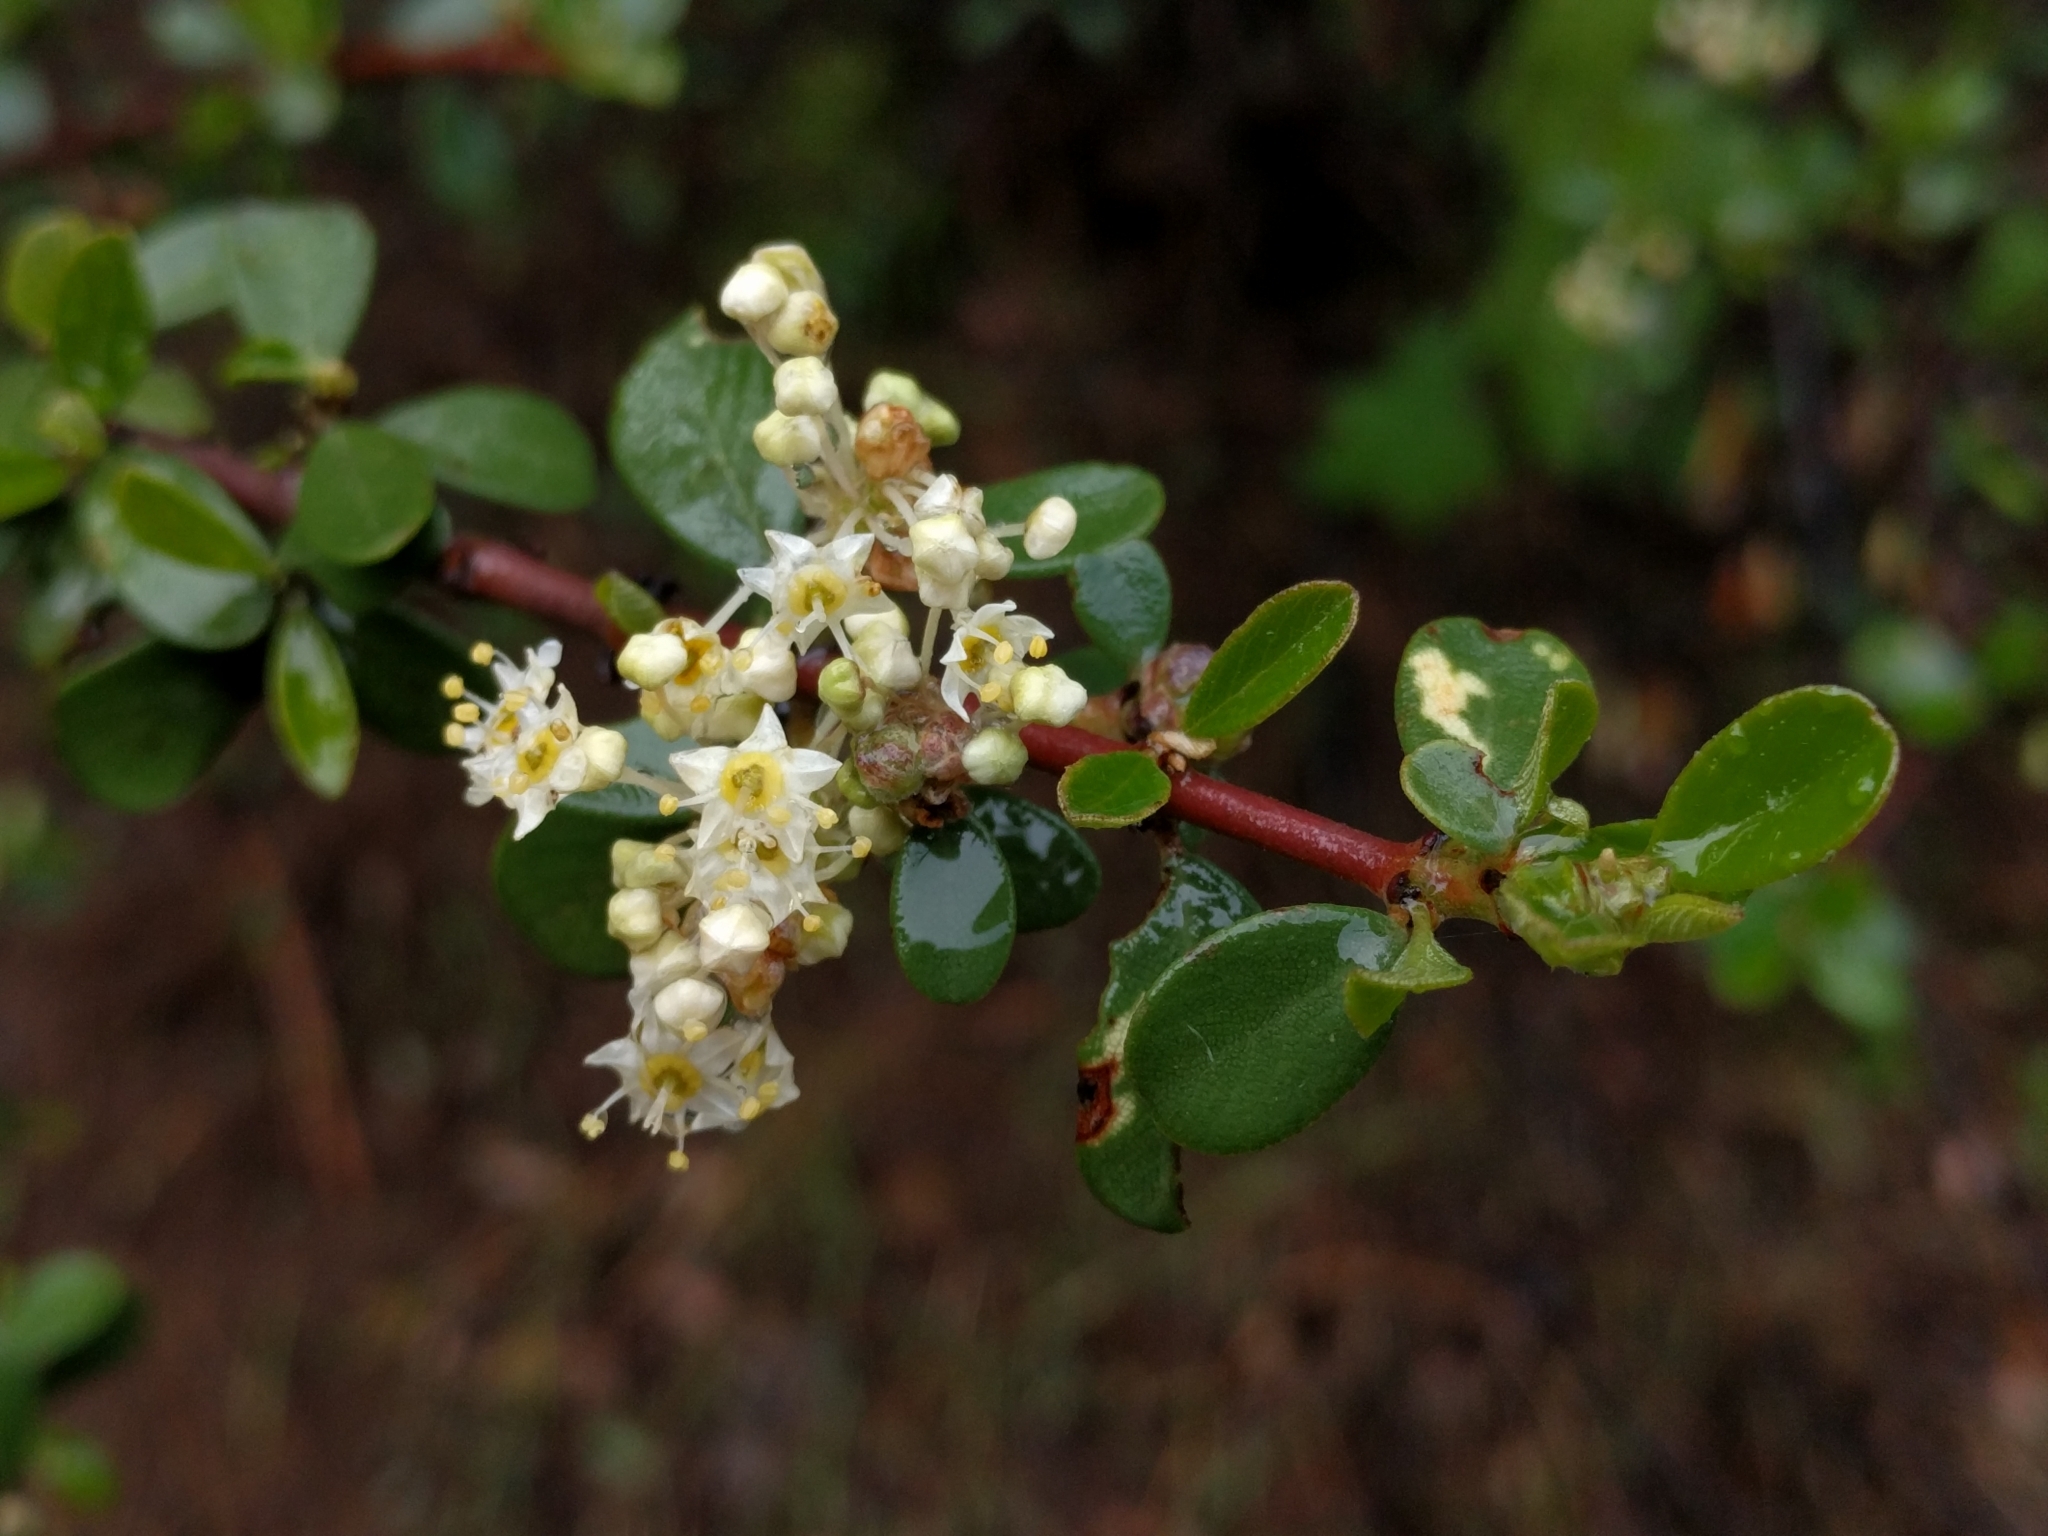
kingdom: Plantae
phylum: Tracheophyta
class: Magnoliopsida
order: Rosales
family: Rhamnaceae
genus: Ceanothus
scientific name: Ceanothus cuneatus
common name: Cuneate ceanothus
